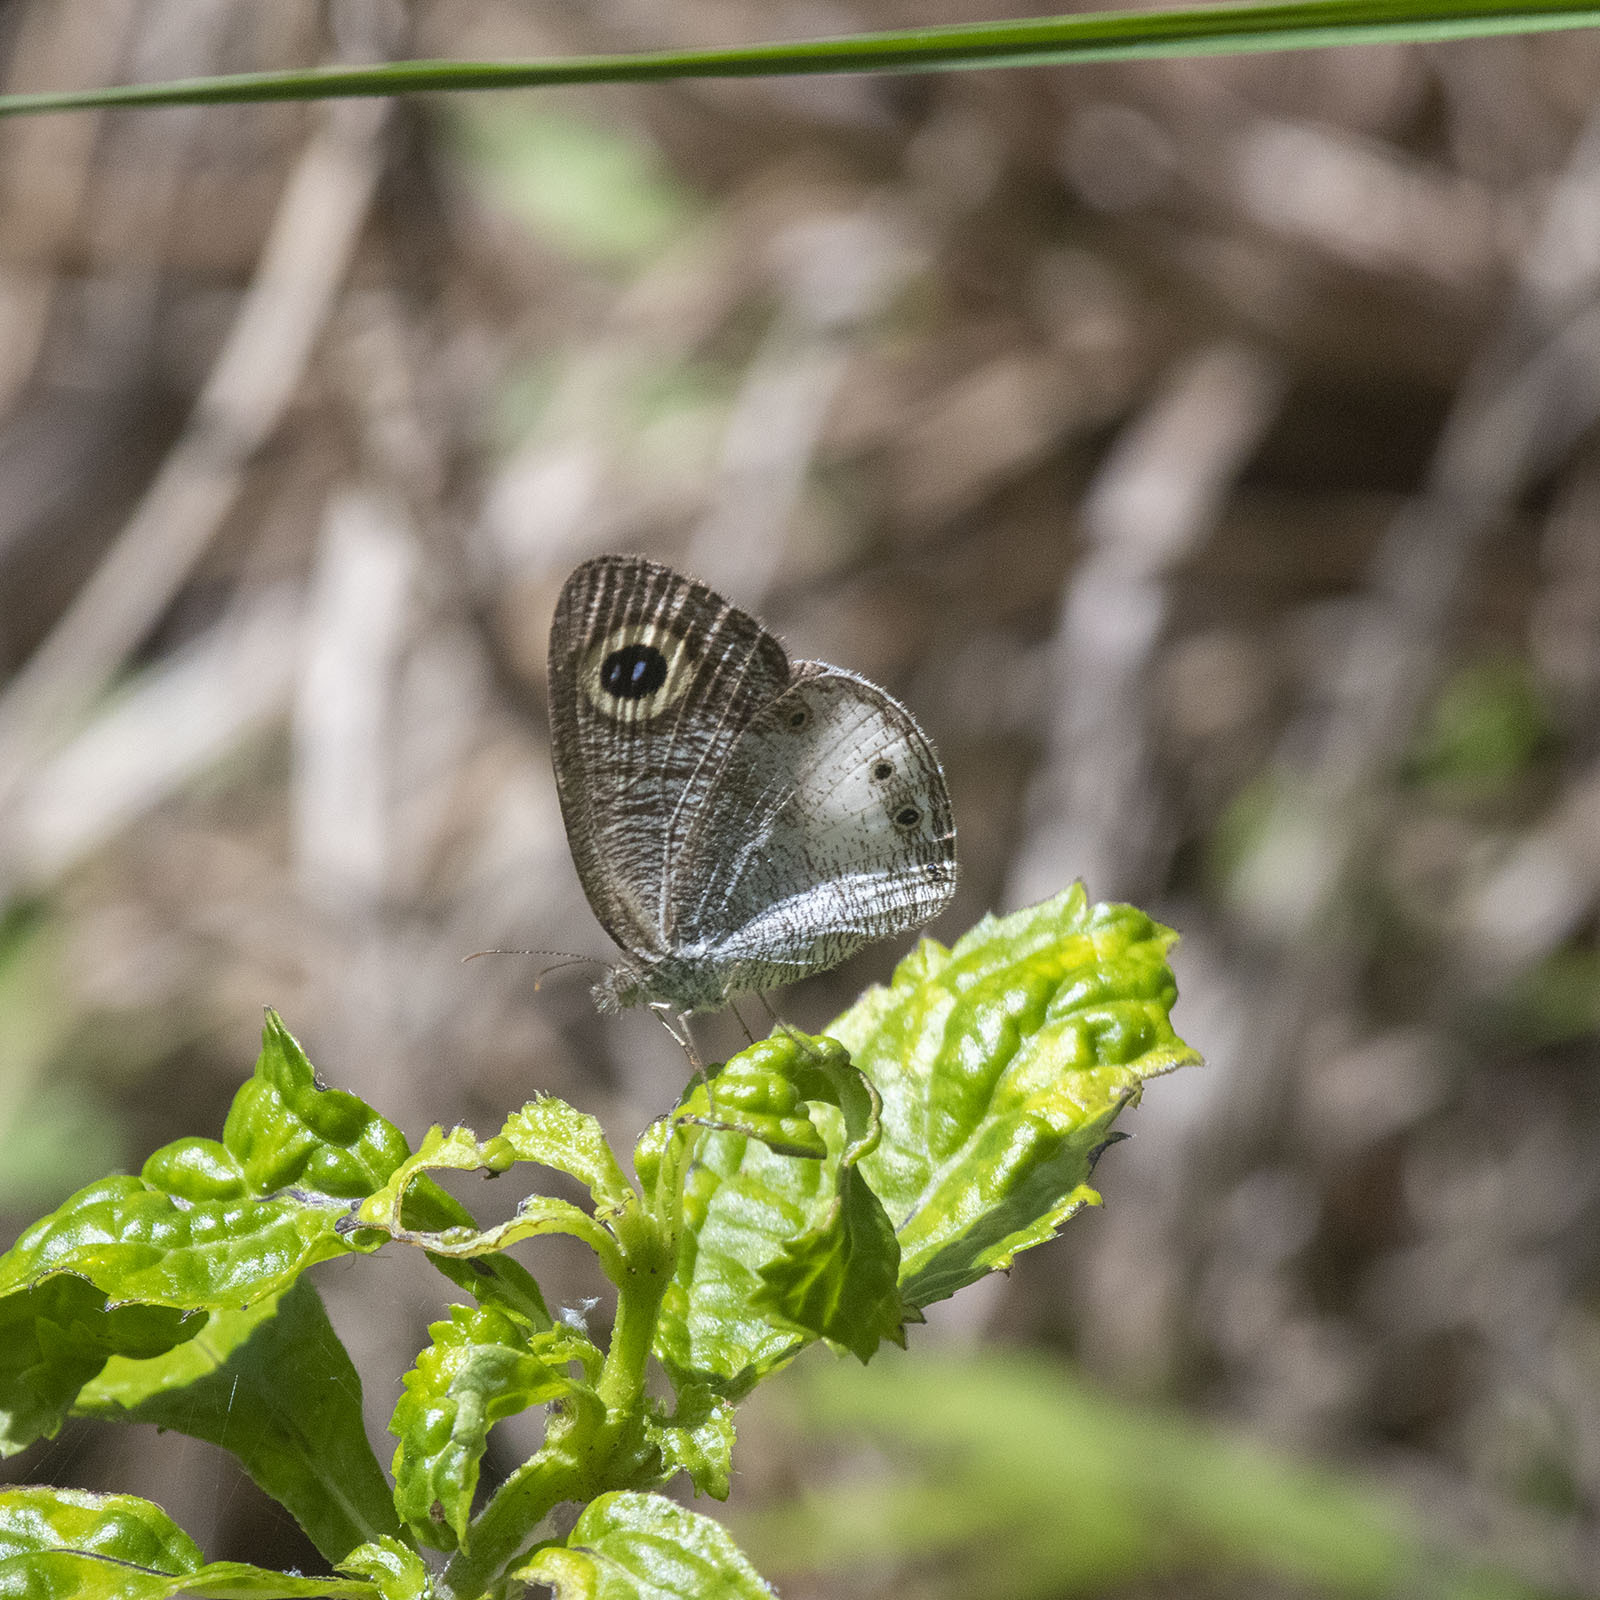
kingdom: Animalia
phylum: Arthropoda
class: Insecta
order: Lepidoptera
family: Nymphalidae
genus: Ypthima
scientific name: Ypthima ceylonica
